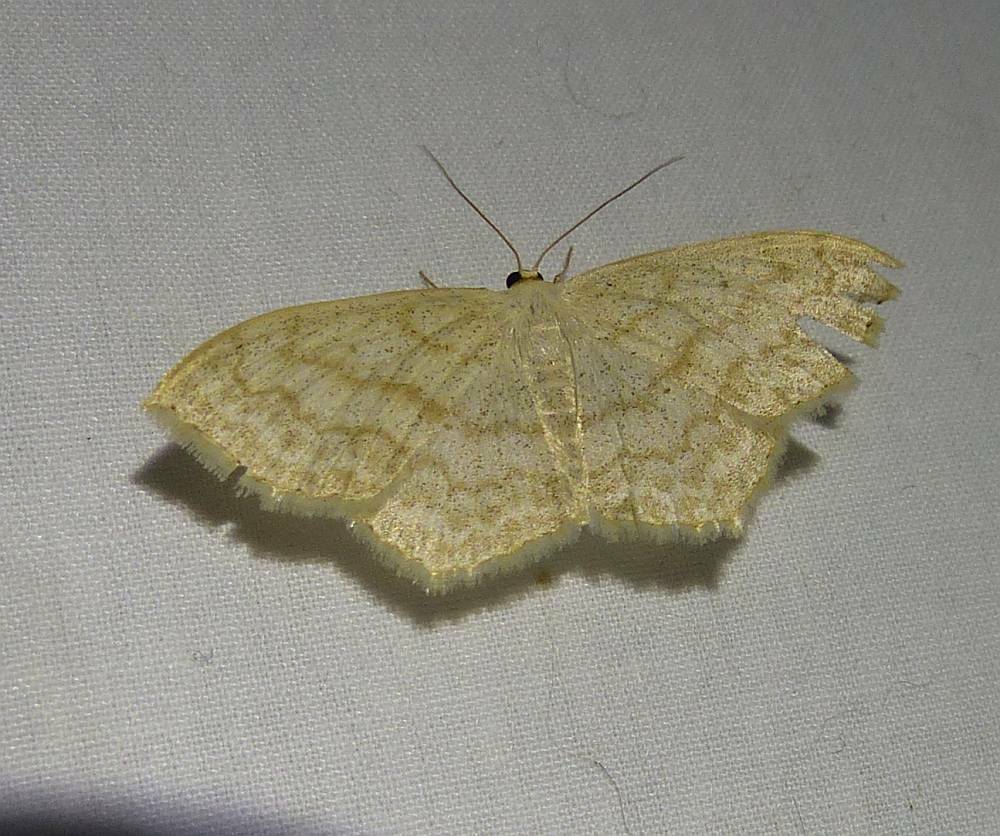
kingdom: Animalia
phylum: Arthropoda
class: Insecta
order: Lepidoptera
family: Geometridae
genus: Scopula
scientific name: Scopula limboundata
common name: Large lace border
